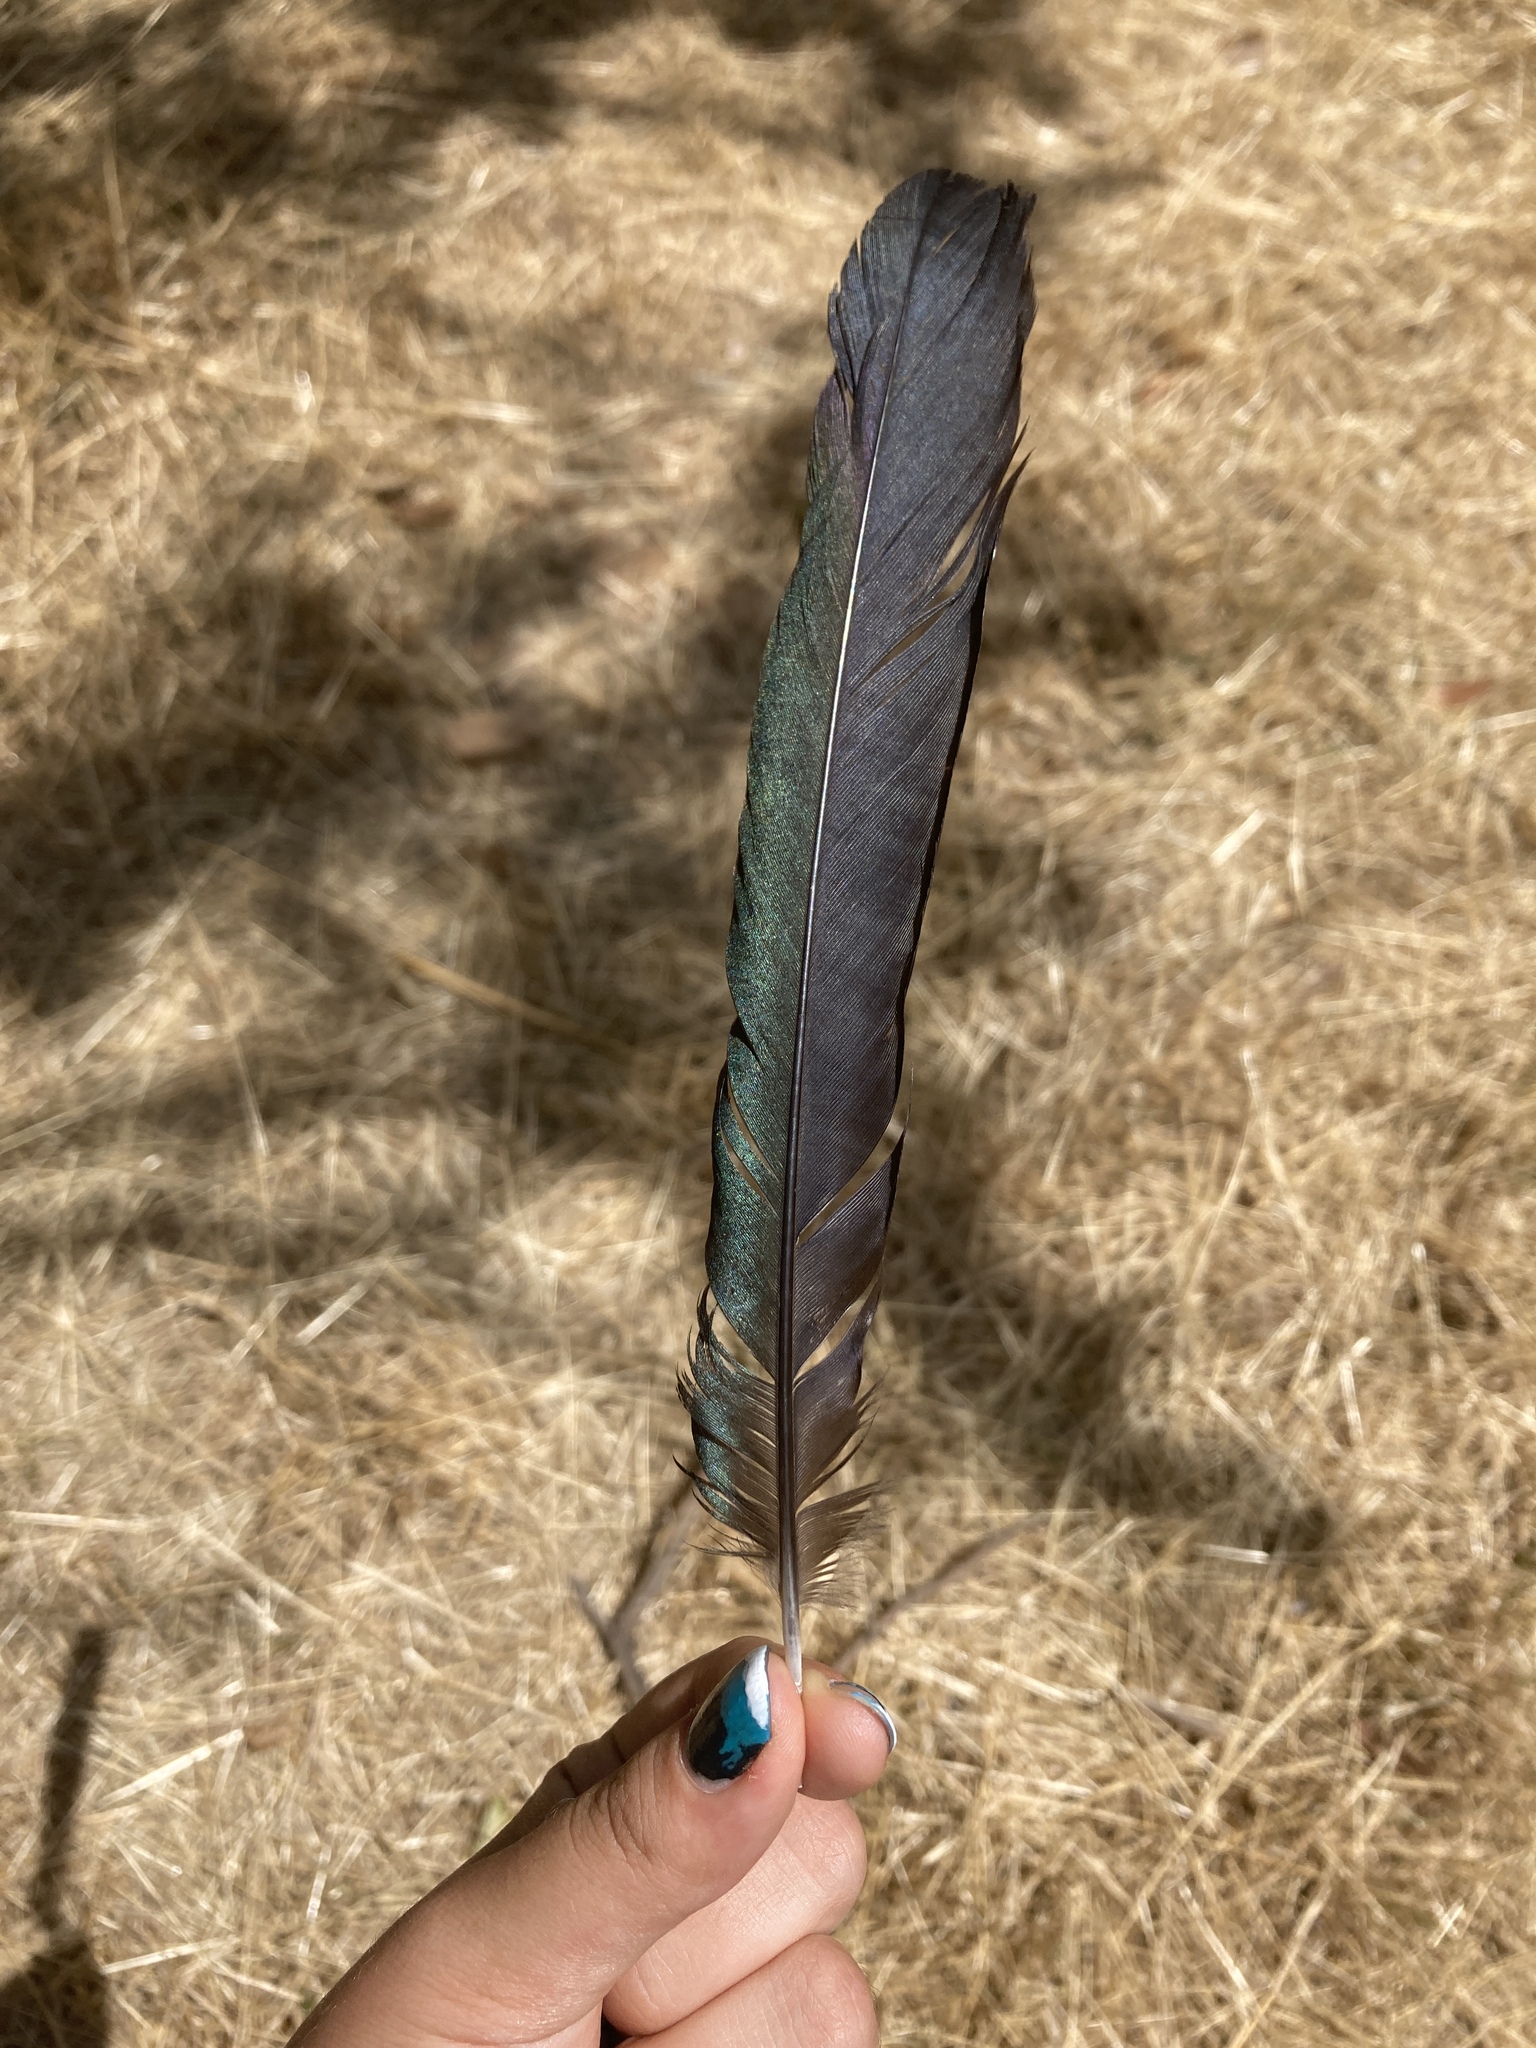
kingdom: Animalia
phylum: Chordata
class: Aves
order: Passeriformes
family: Corvidae
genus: Pica
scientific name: Pica pica
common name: Eurasian magpie
